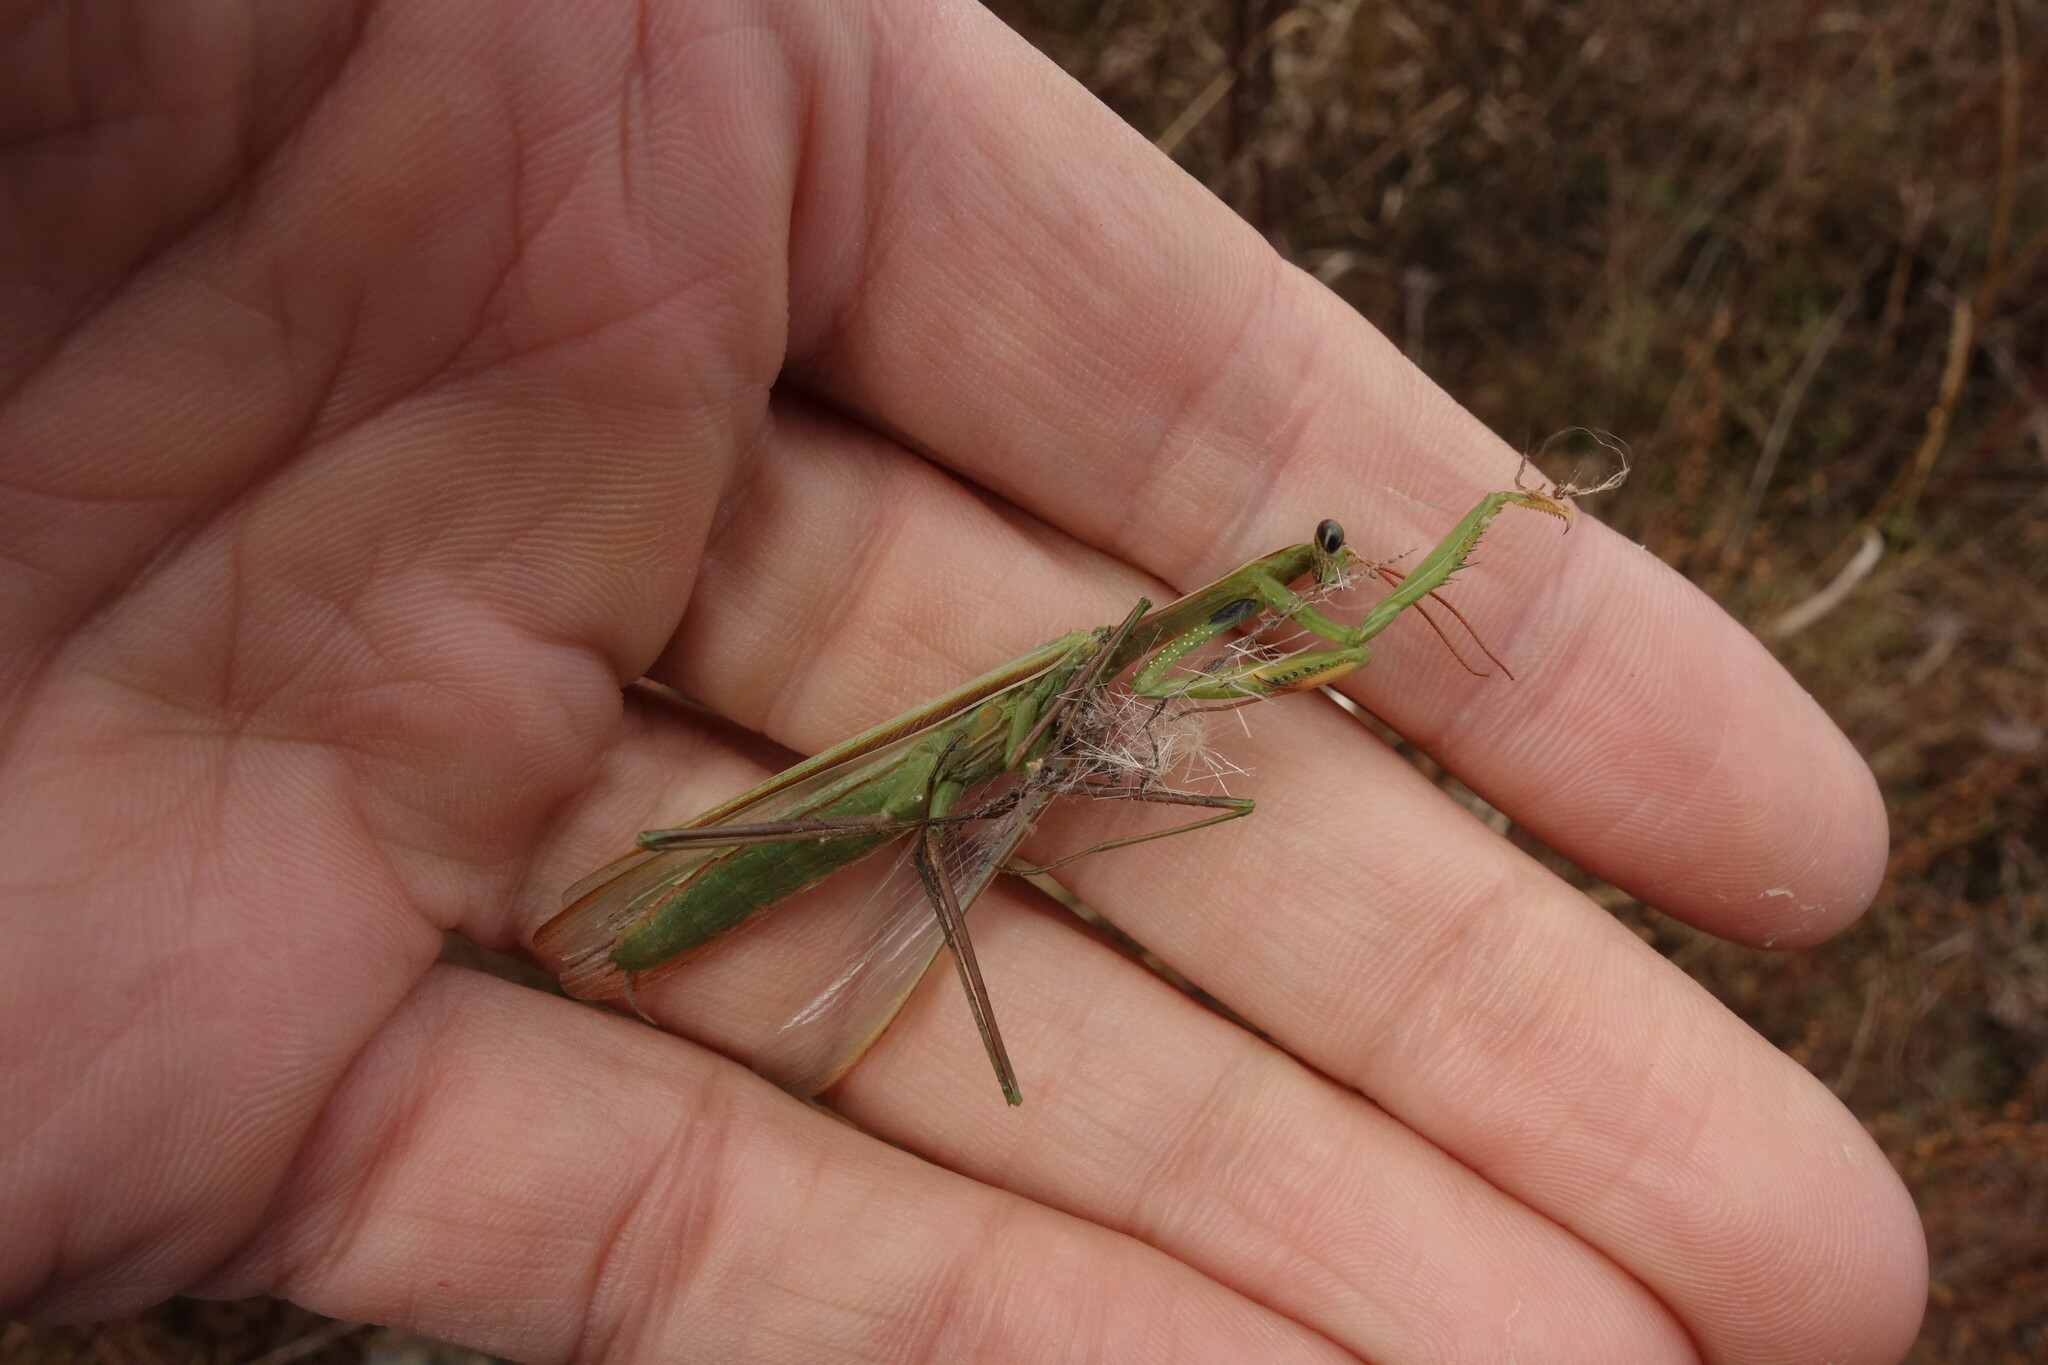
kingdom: Animalia
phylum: Arthropoda
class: Insecta
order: Mantodea
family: Mantidae
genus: Mantis
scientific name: Mantis religiosa
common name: Praying mantis
